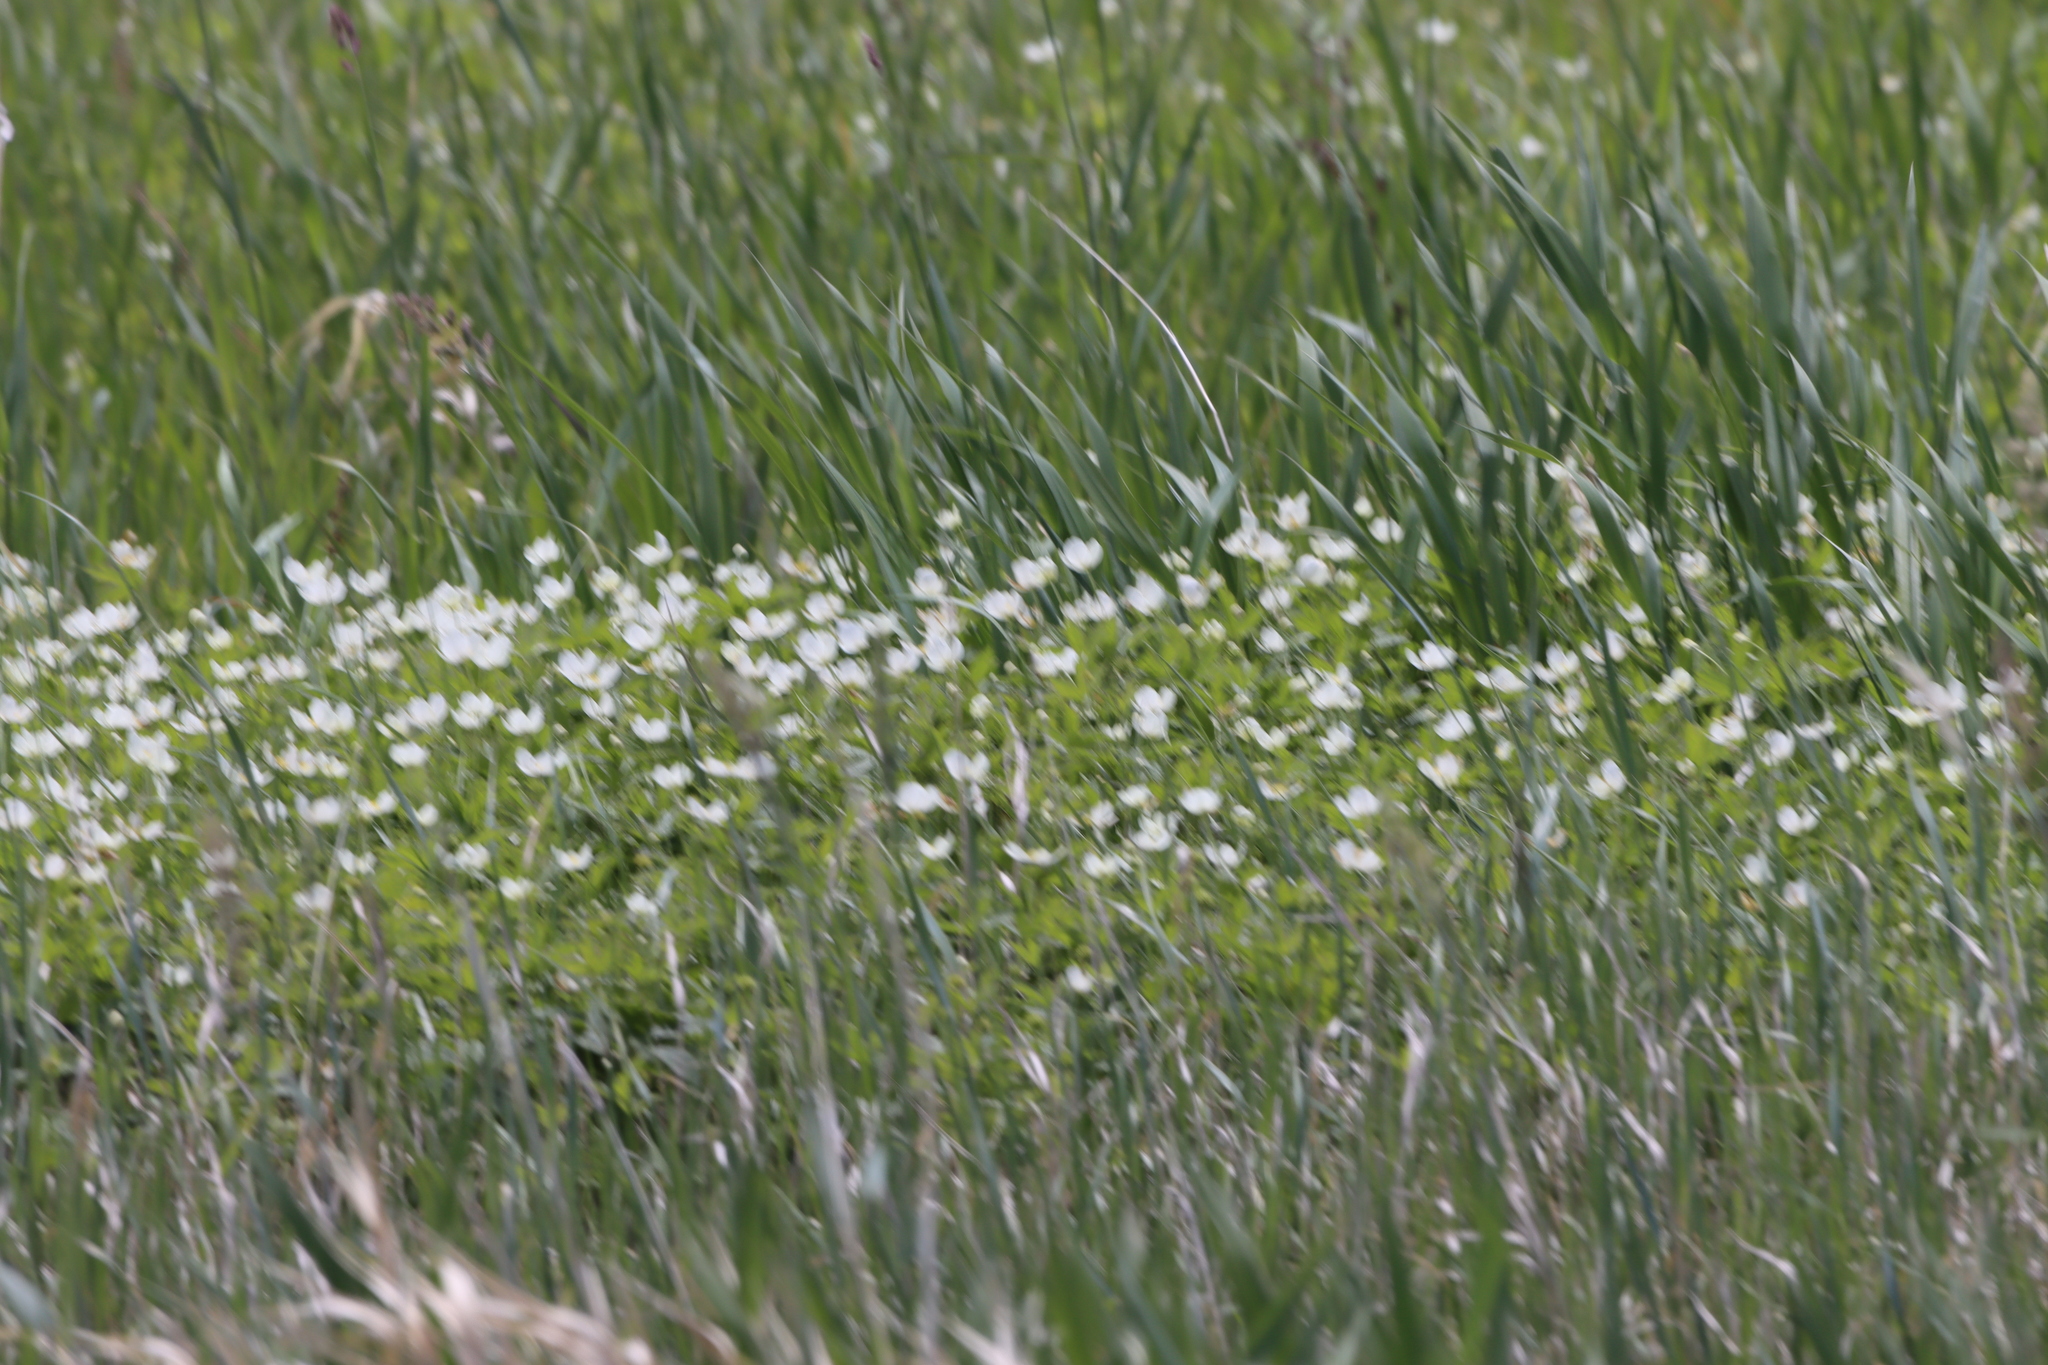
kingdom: Plantae
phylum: Tracheophyta
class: Magnoliopsida
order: Ranunculales
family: Ranunculaceae
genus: Anemonastrum
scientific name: Anemonastrum canadense
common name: Canada anemone
